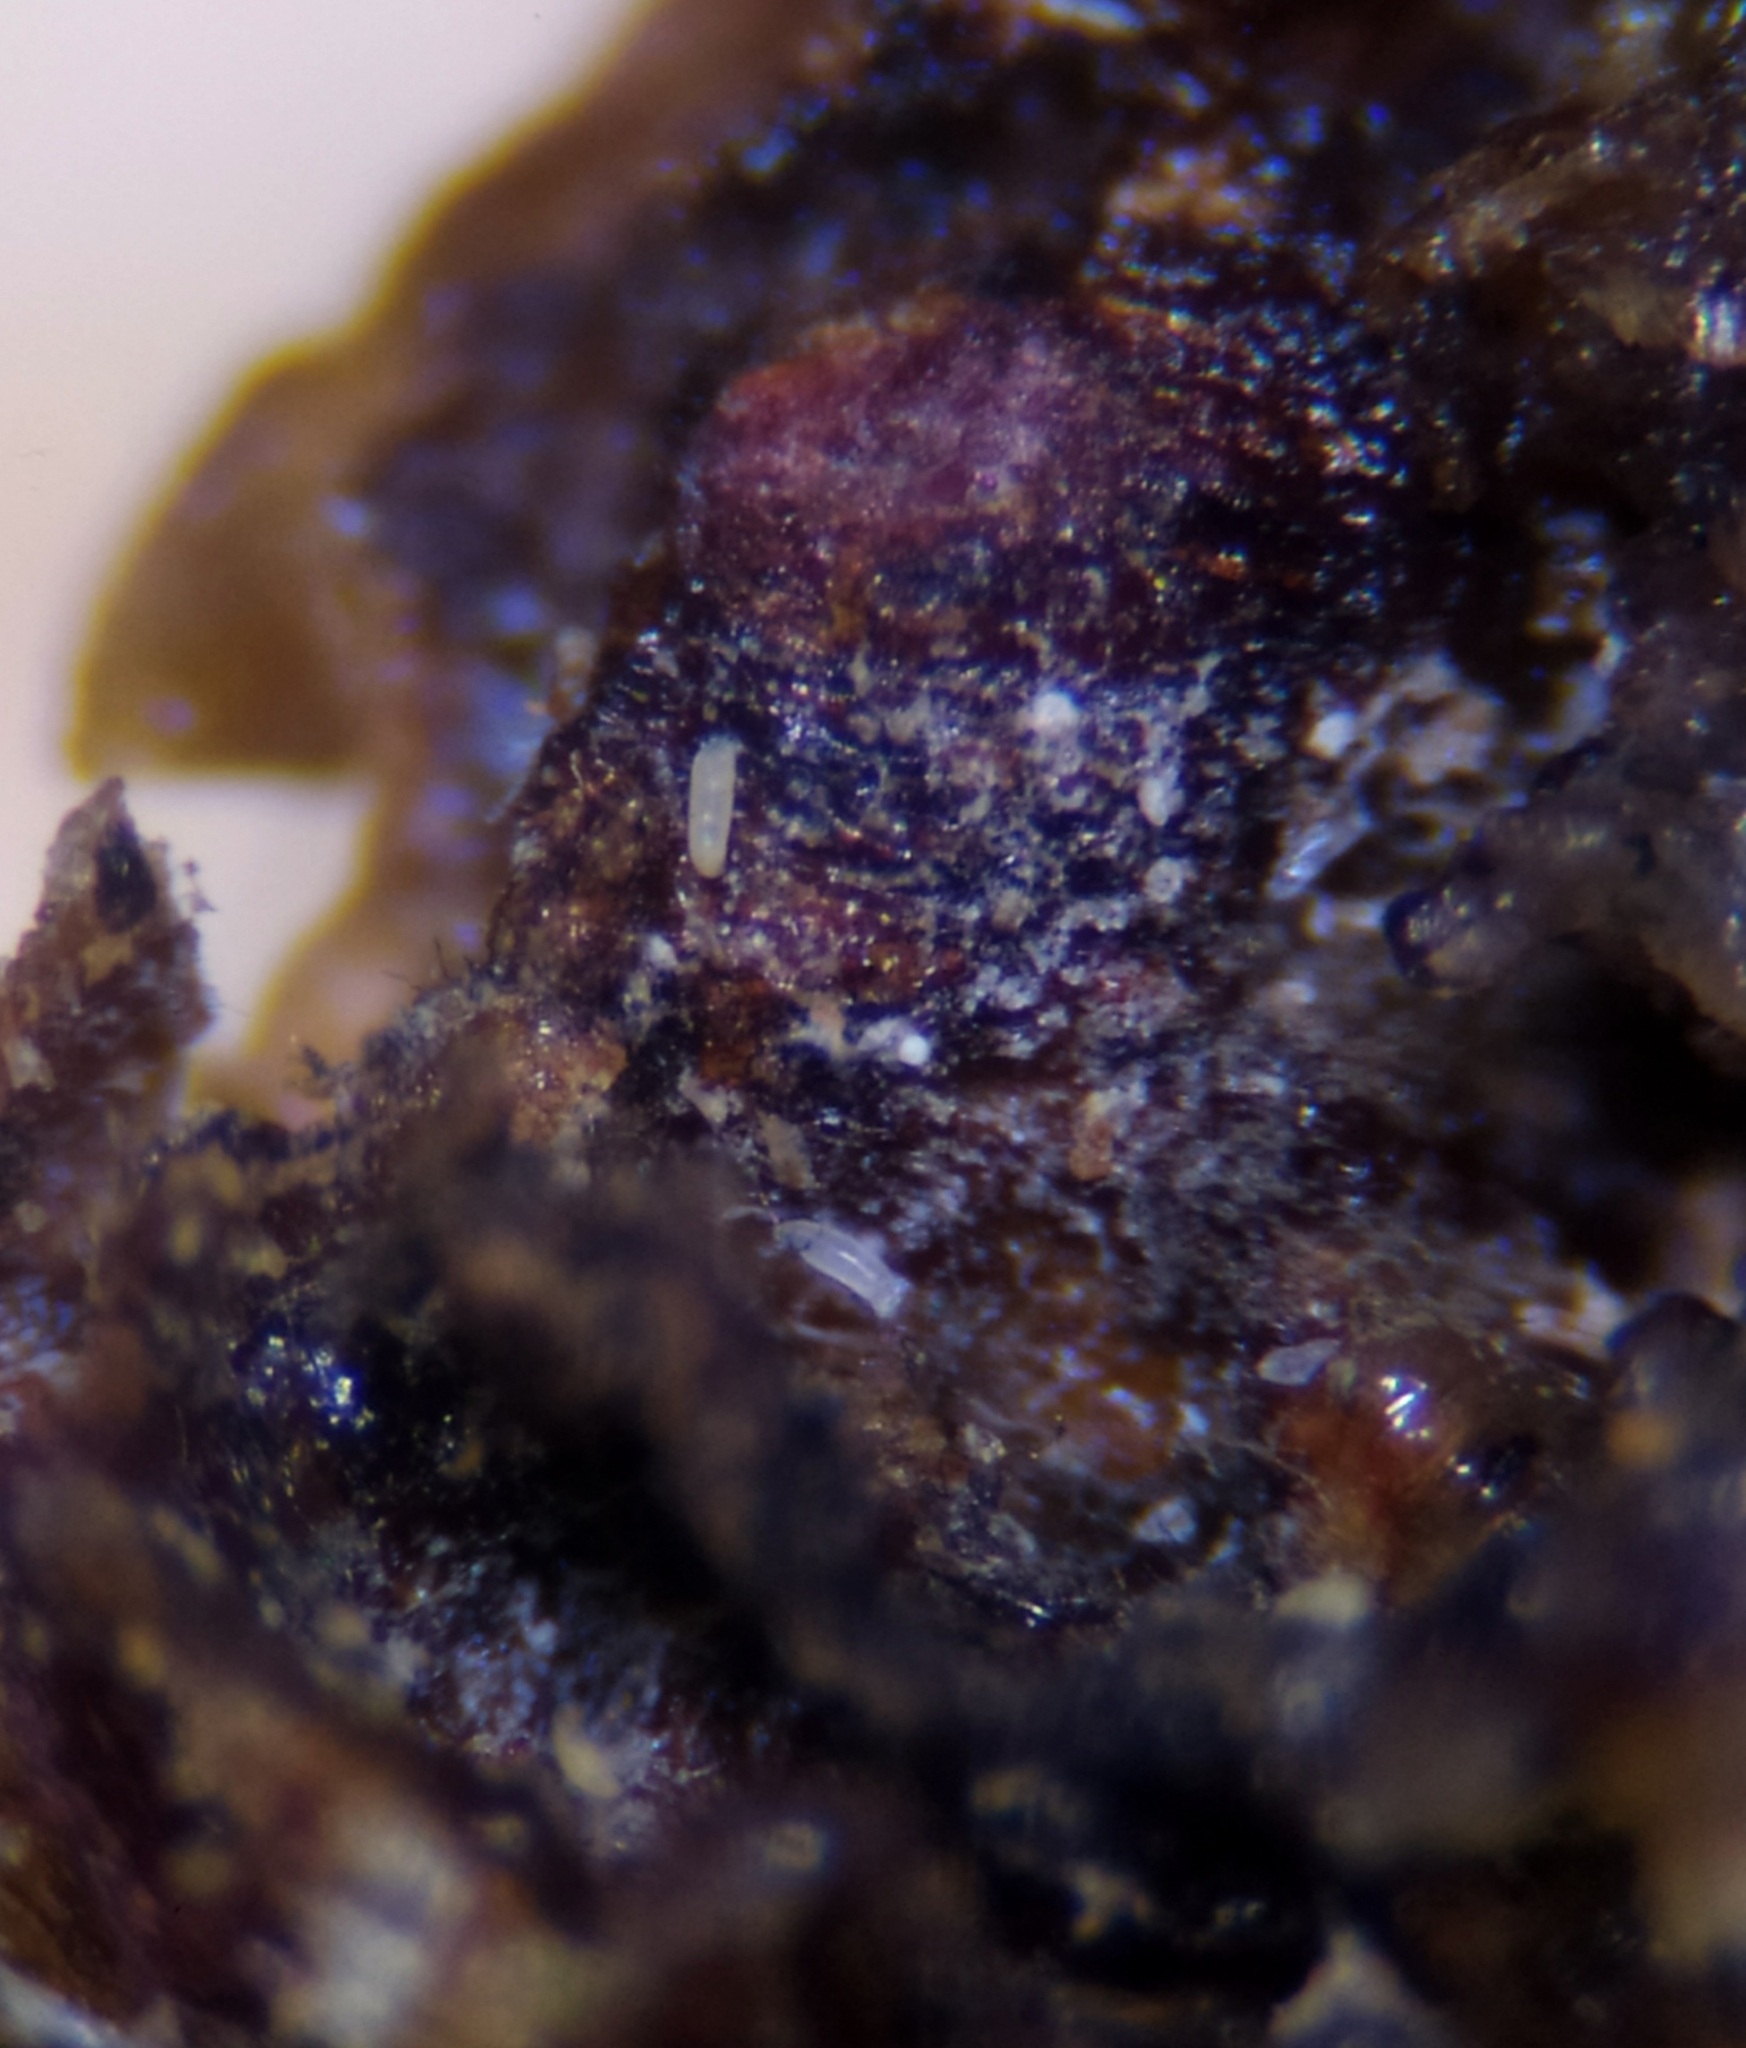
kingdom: Animalia
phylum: Arthropoda
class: Arachnida
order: Trombidiformes
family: Eriophyidae
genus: Cecidophyopsis
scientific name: Cecidophyopsis psilaspis
